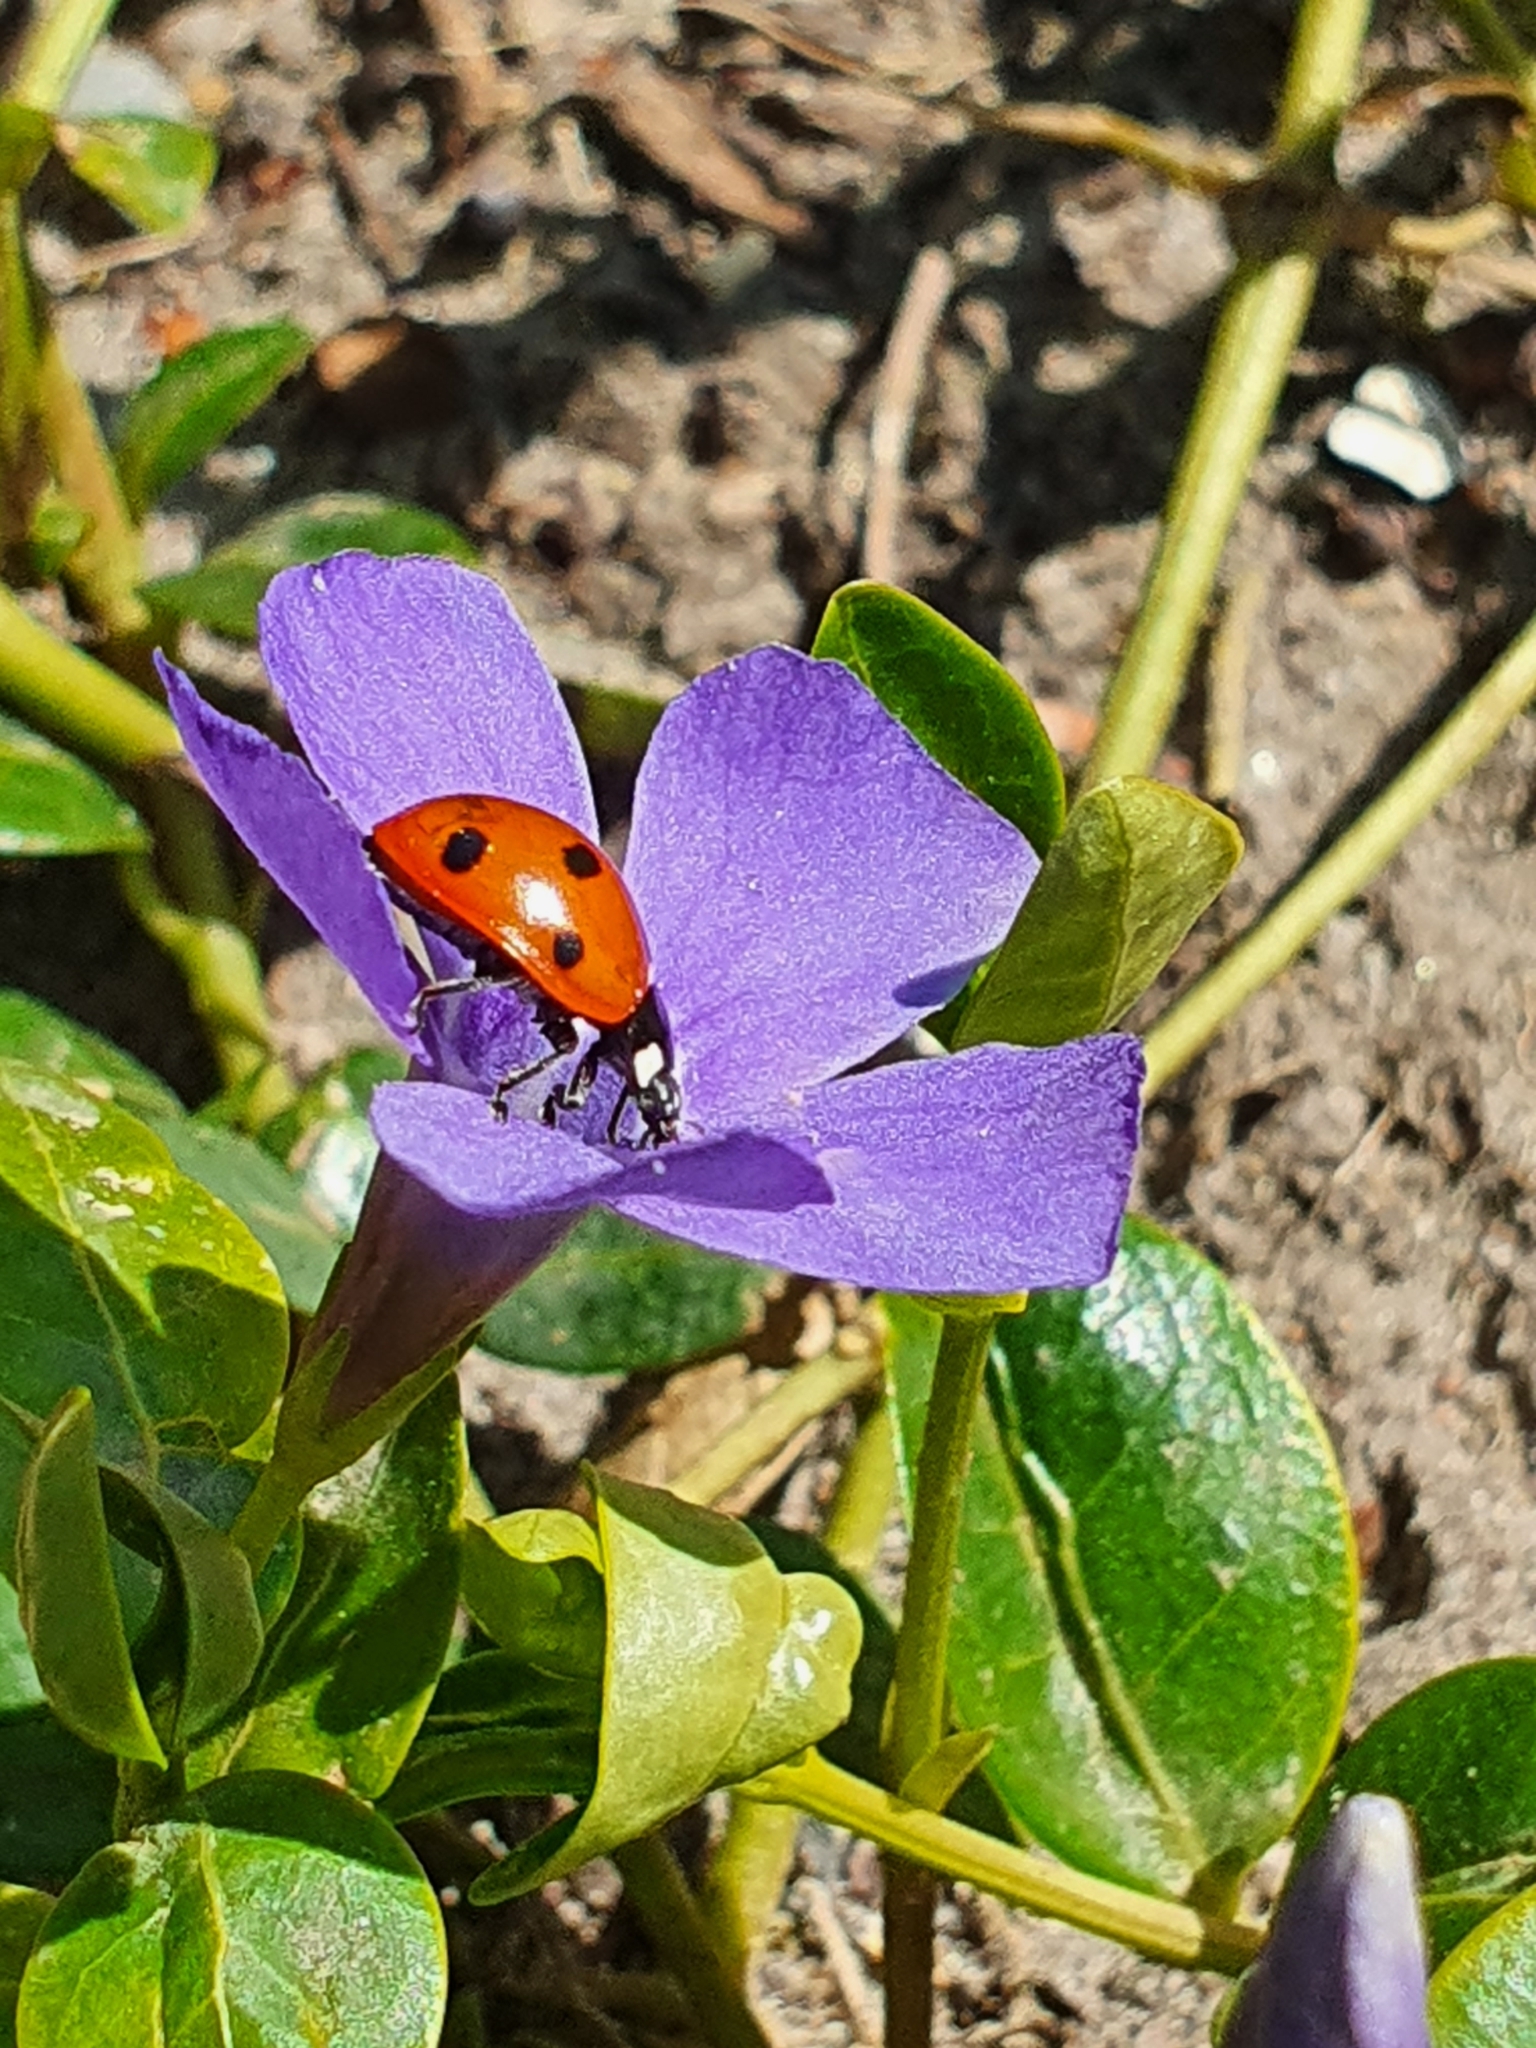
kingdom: Animalia
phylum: Arthropoda
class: Insecta
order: Coleoptera
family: Coccinellidae
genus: Coccinella
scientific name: Coccinella septempunctata
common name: Sevenspotted lady beetle
